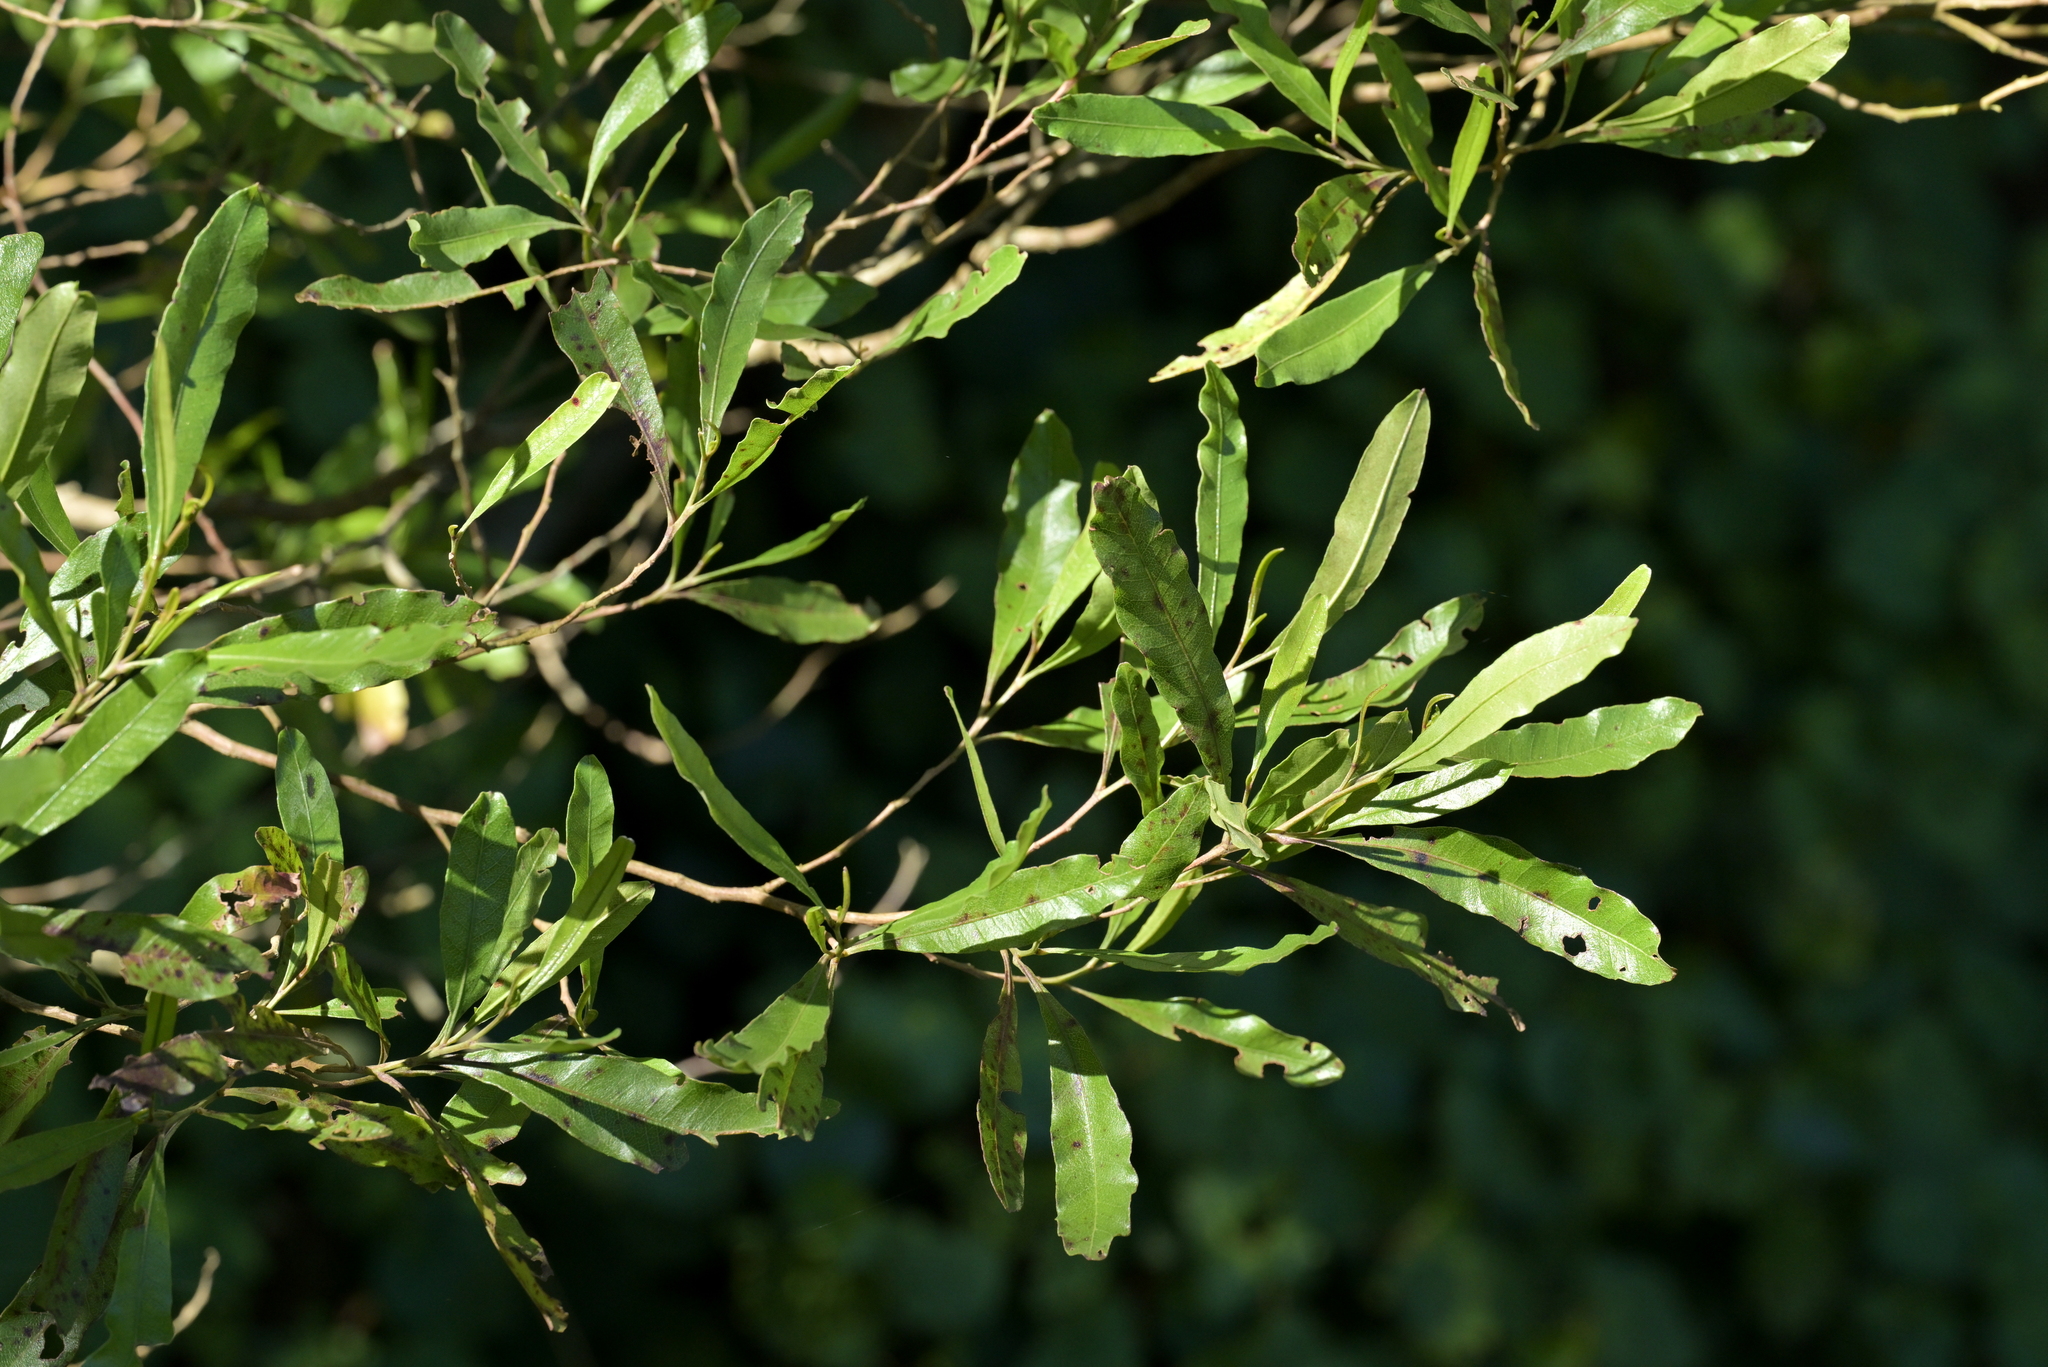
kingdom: Plantae
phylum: Tracheophyta
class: Magnoliopsida
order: Sapindales
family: Sapindaceae
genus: Dodonaea
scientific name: Dodonaea viscosa
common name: Hopbush
